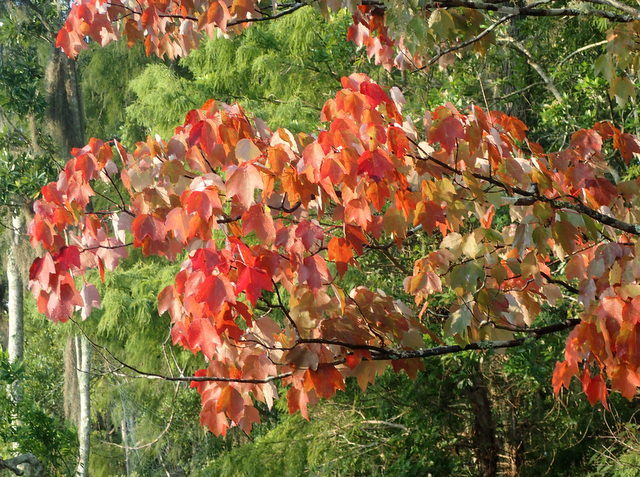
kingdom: Plantae
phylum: Tracheophyta
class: Magnoliopsida
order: Sapindales
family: Sapindaceae
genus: Acer
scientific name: Acer rubrum
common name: Red maple
